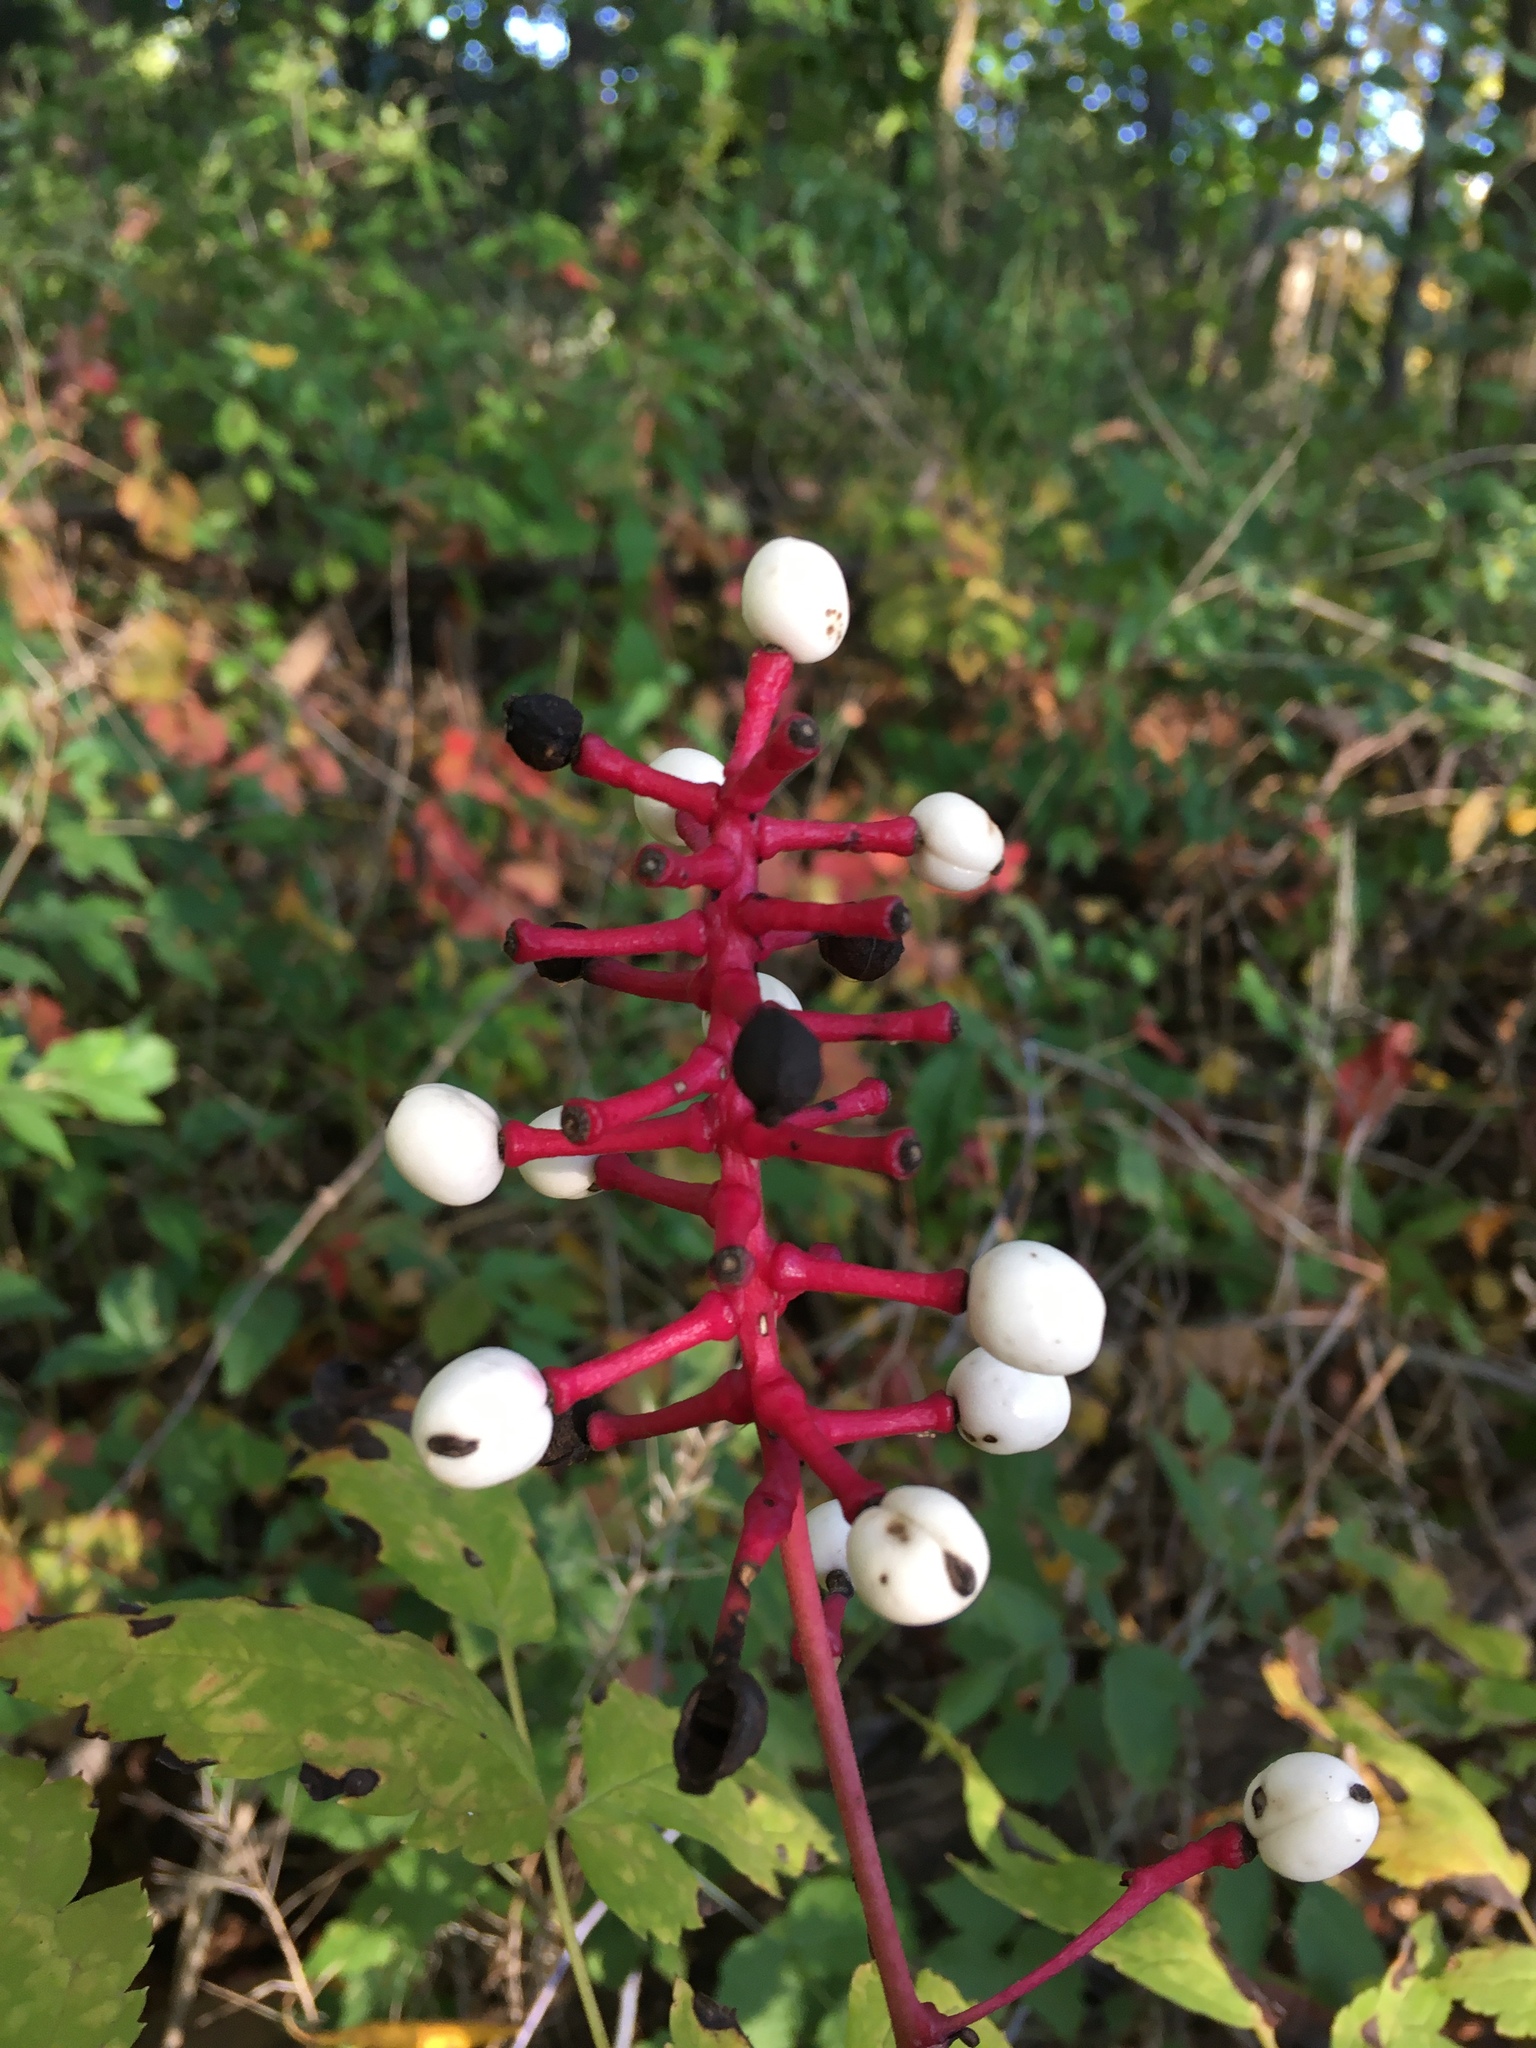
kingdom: Plantae
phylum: Tracheophyta
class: Magnoliopsida
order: Ranunculales
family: Ranunculaceae
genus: Actaea
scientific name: Actaea pachypoda
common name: Doll's-eyes
